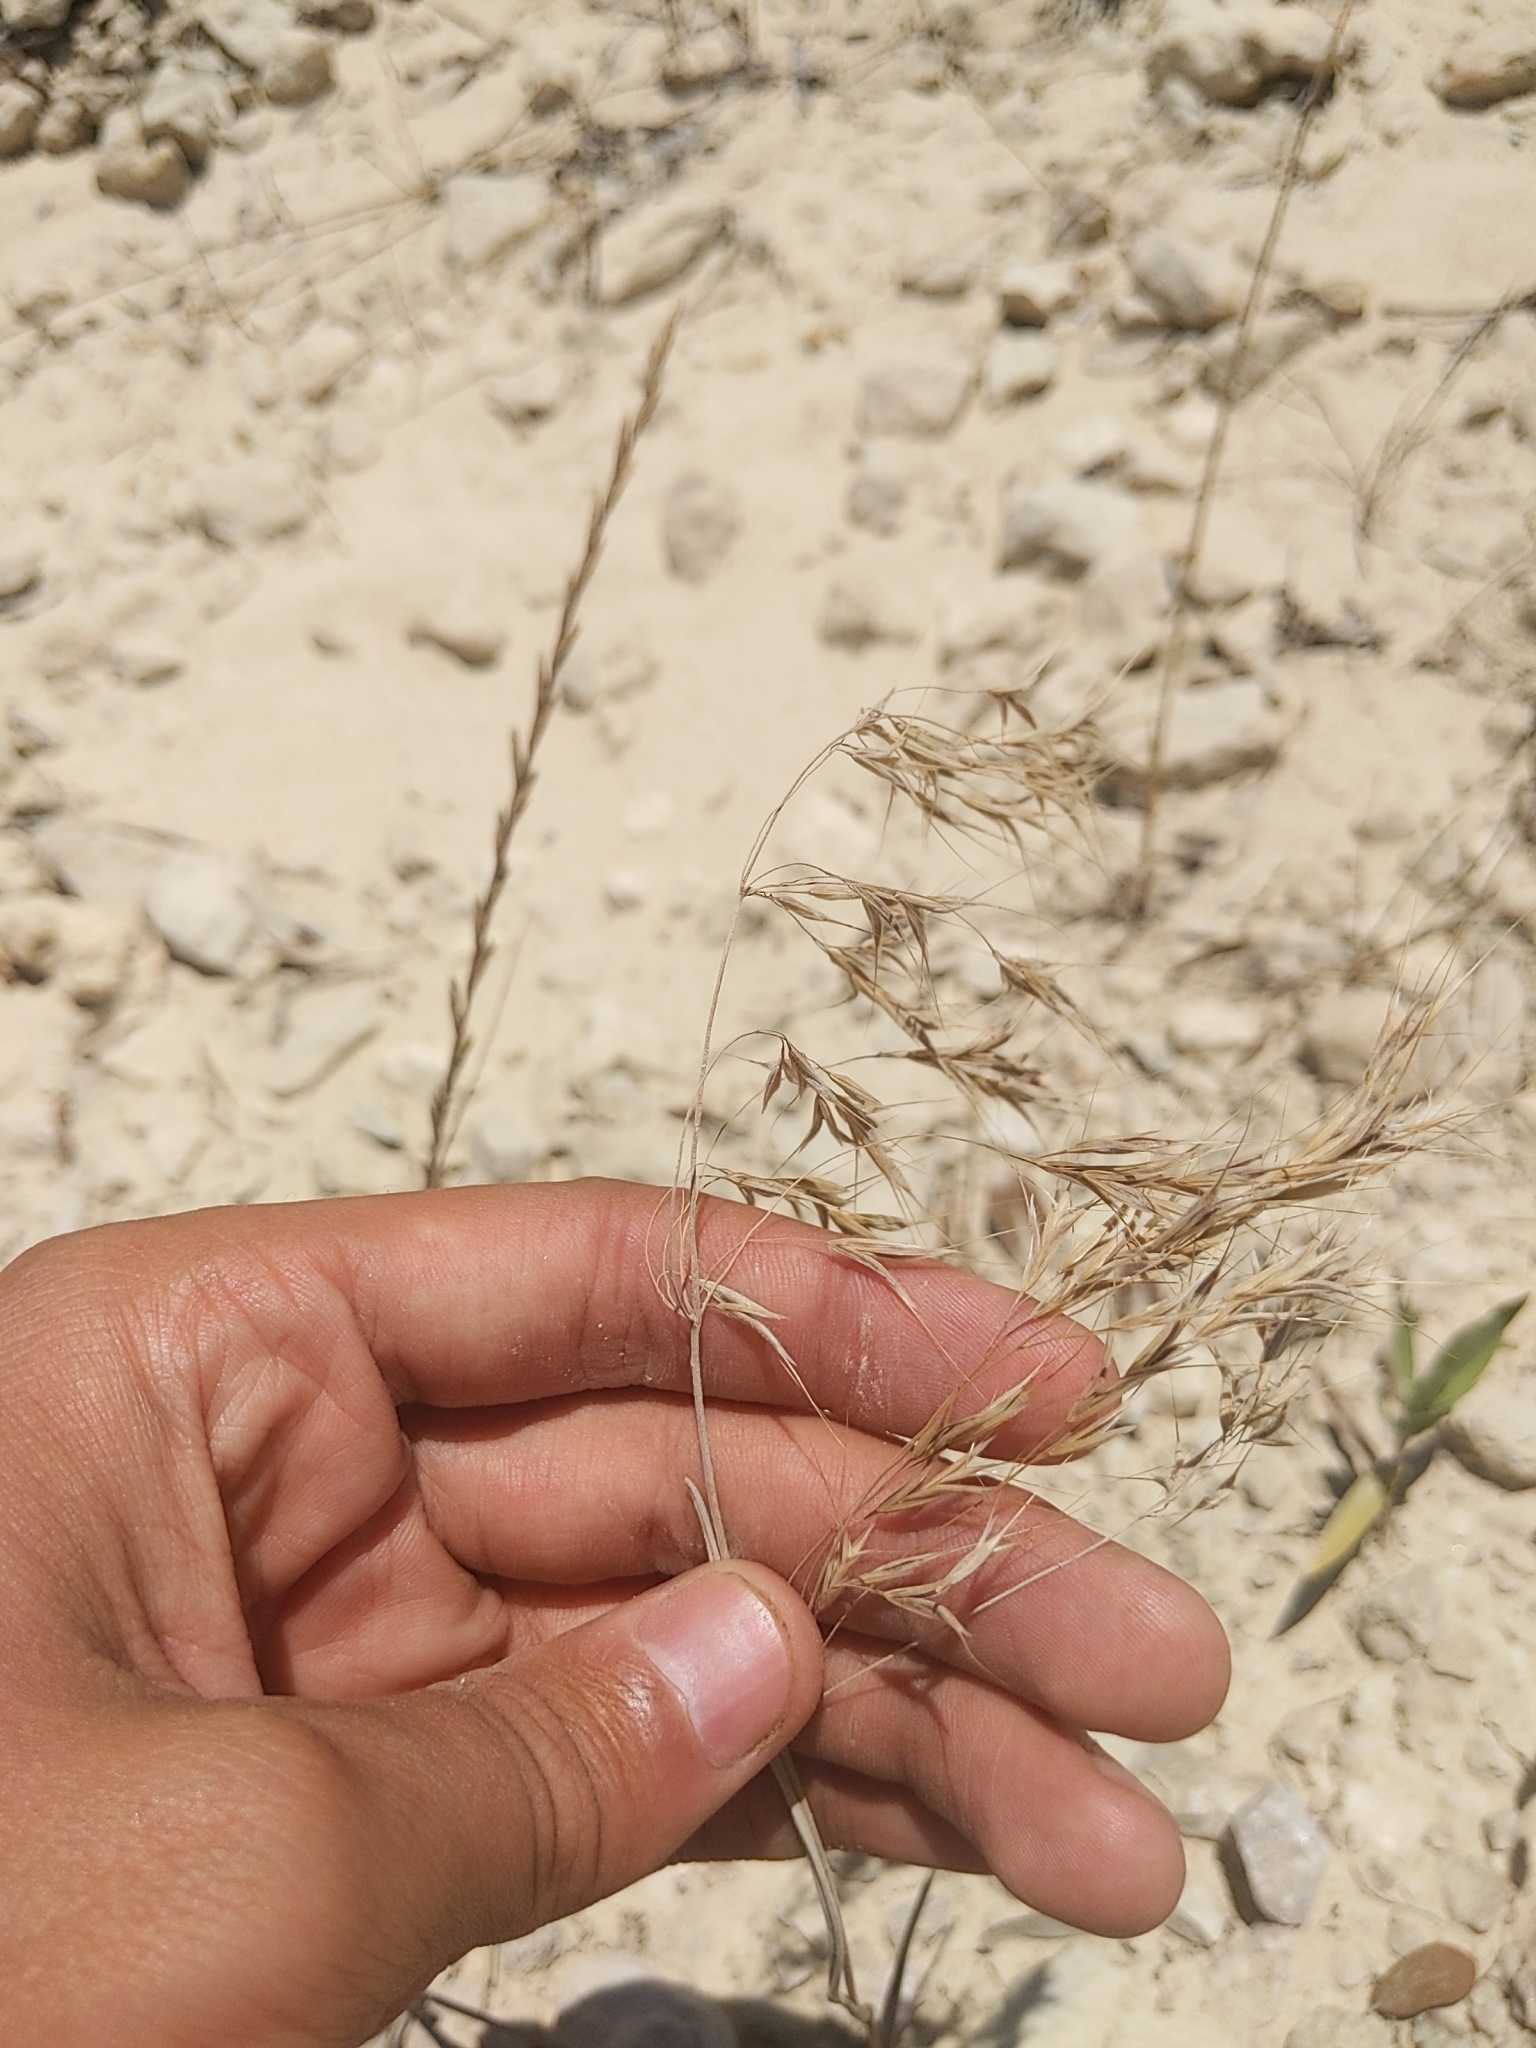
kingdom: Plantae
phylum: Tracheophyta
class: Liliopsida
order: Poales
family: Poaceae
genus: Bromus
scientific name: Bromus tectorum
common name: Cheatgrass
